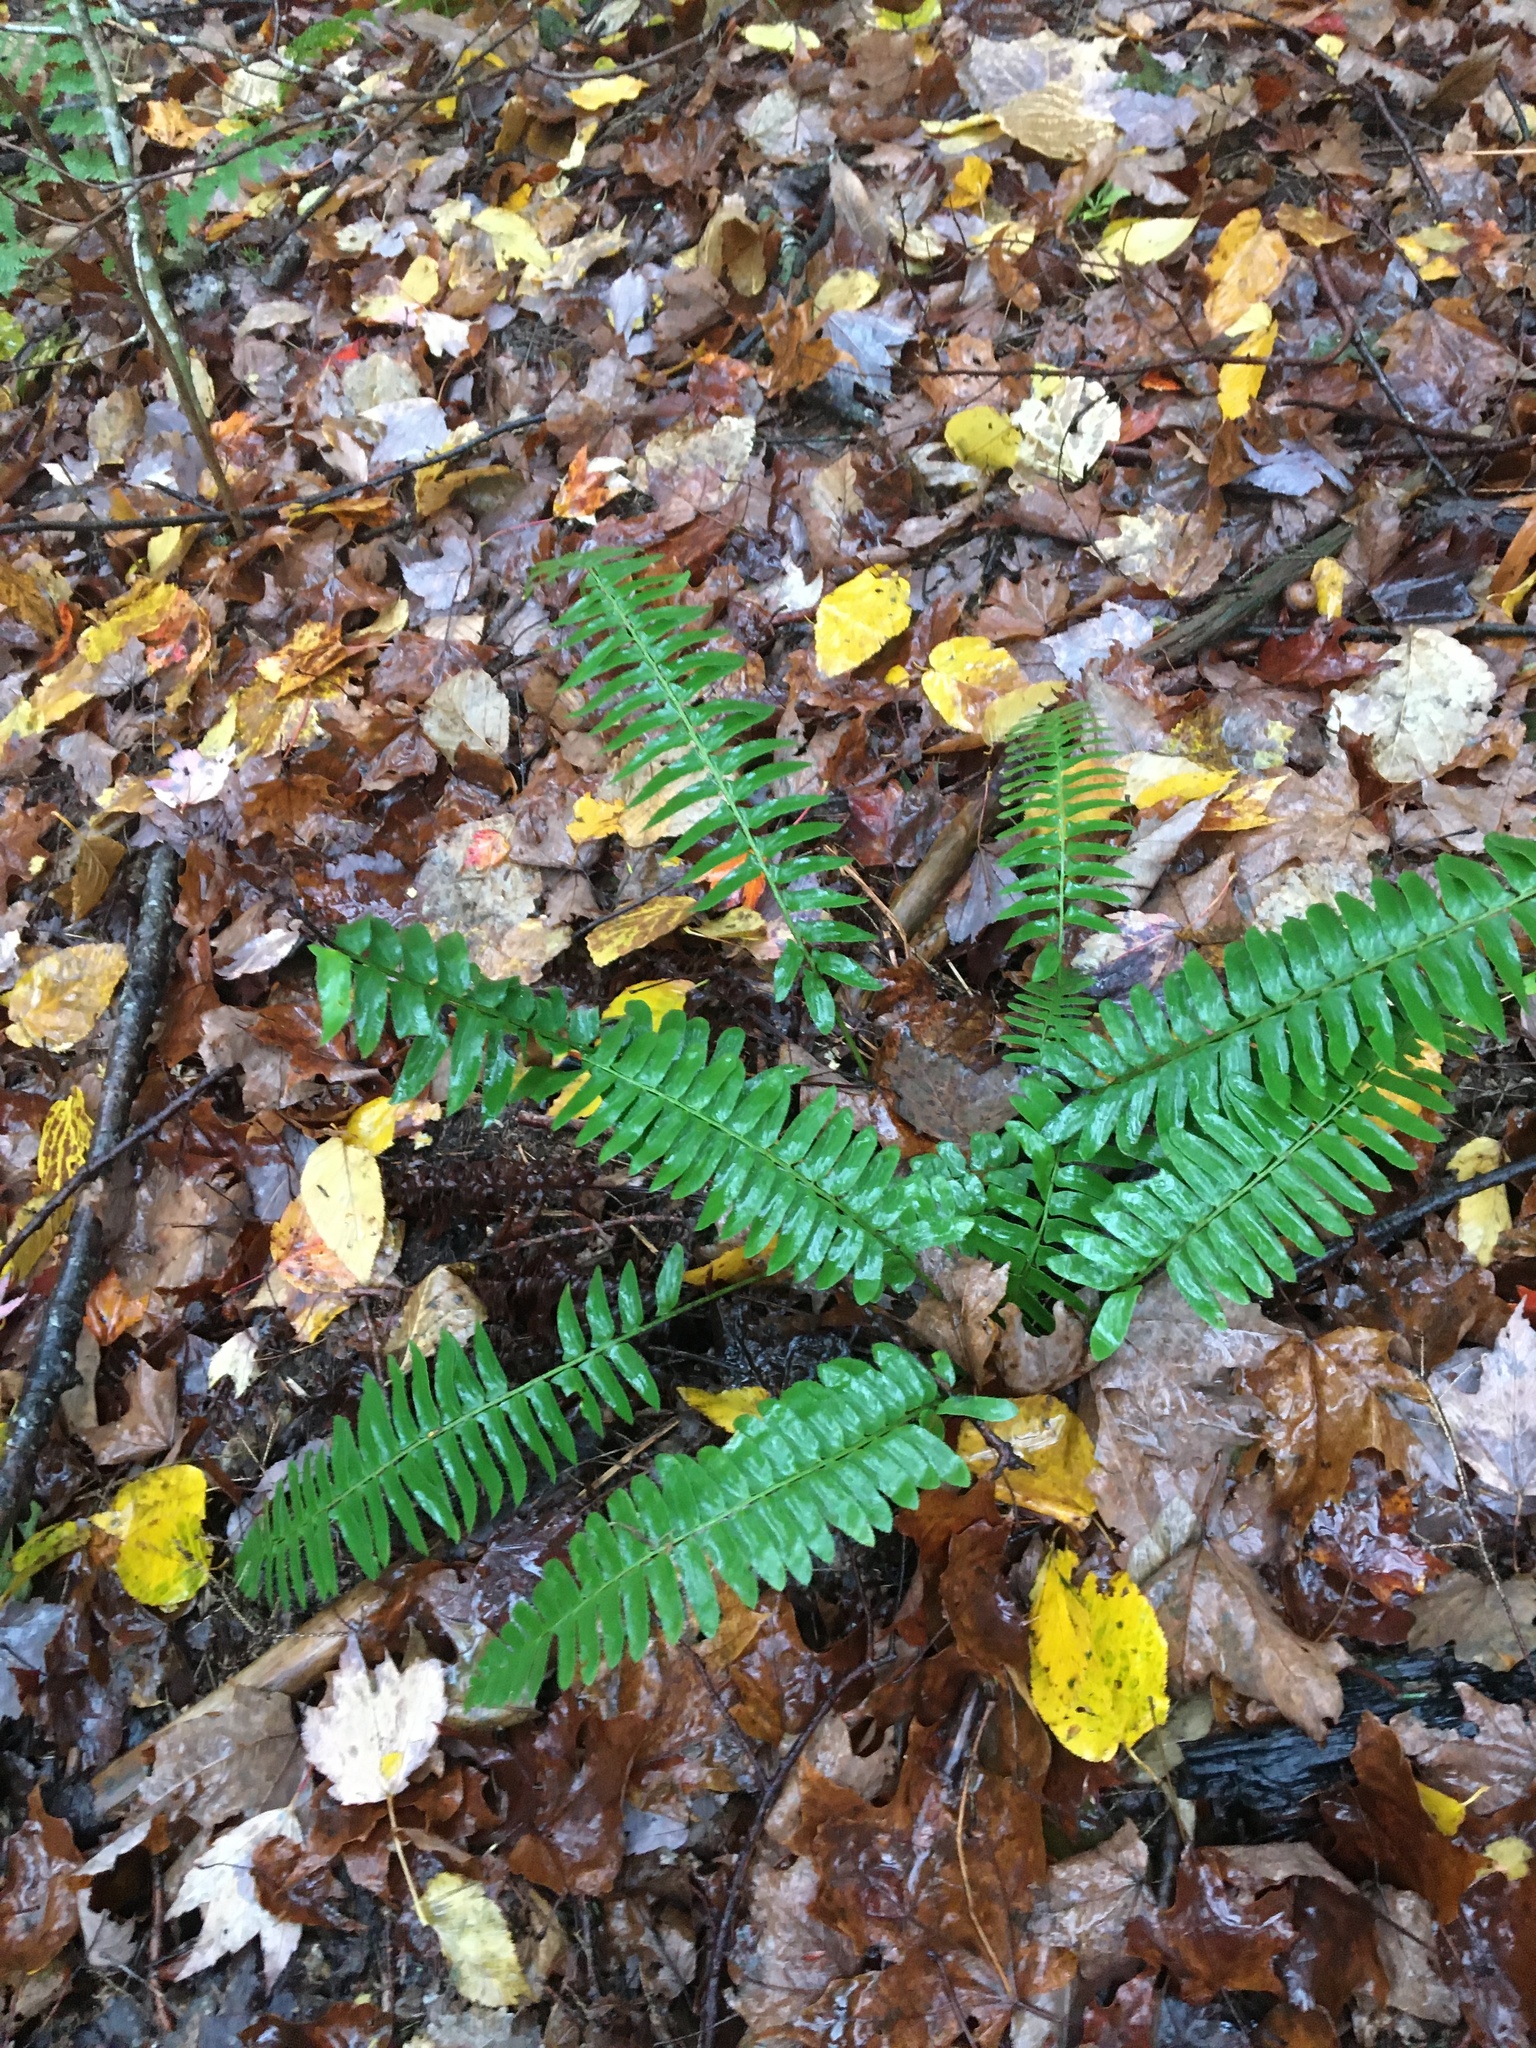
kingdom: Plantae
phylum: Tracheophyta
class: Polypodiopsida
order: Polypodiales
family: Dryopteridaceae
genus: Polystichum
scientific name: Polystichum acrostichoides
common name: Christmas fern
